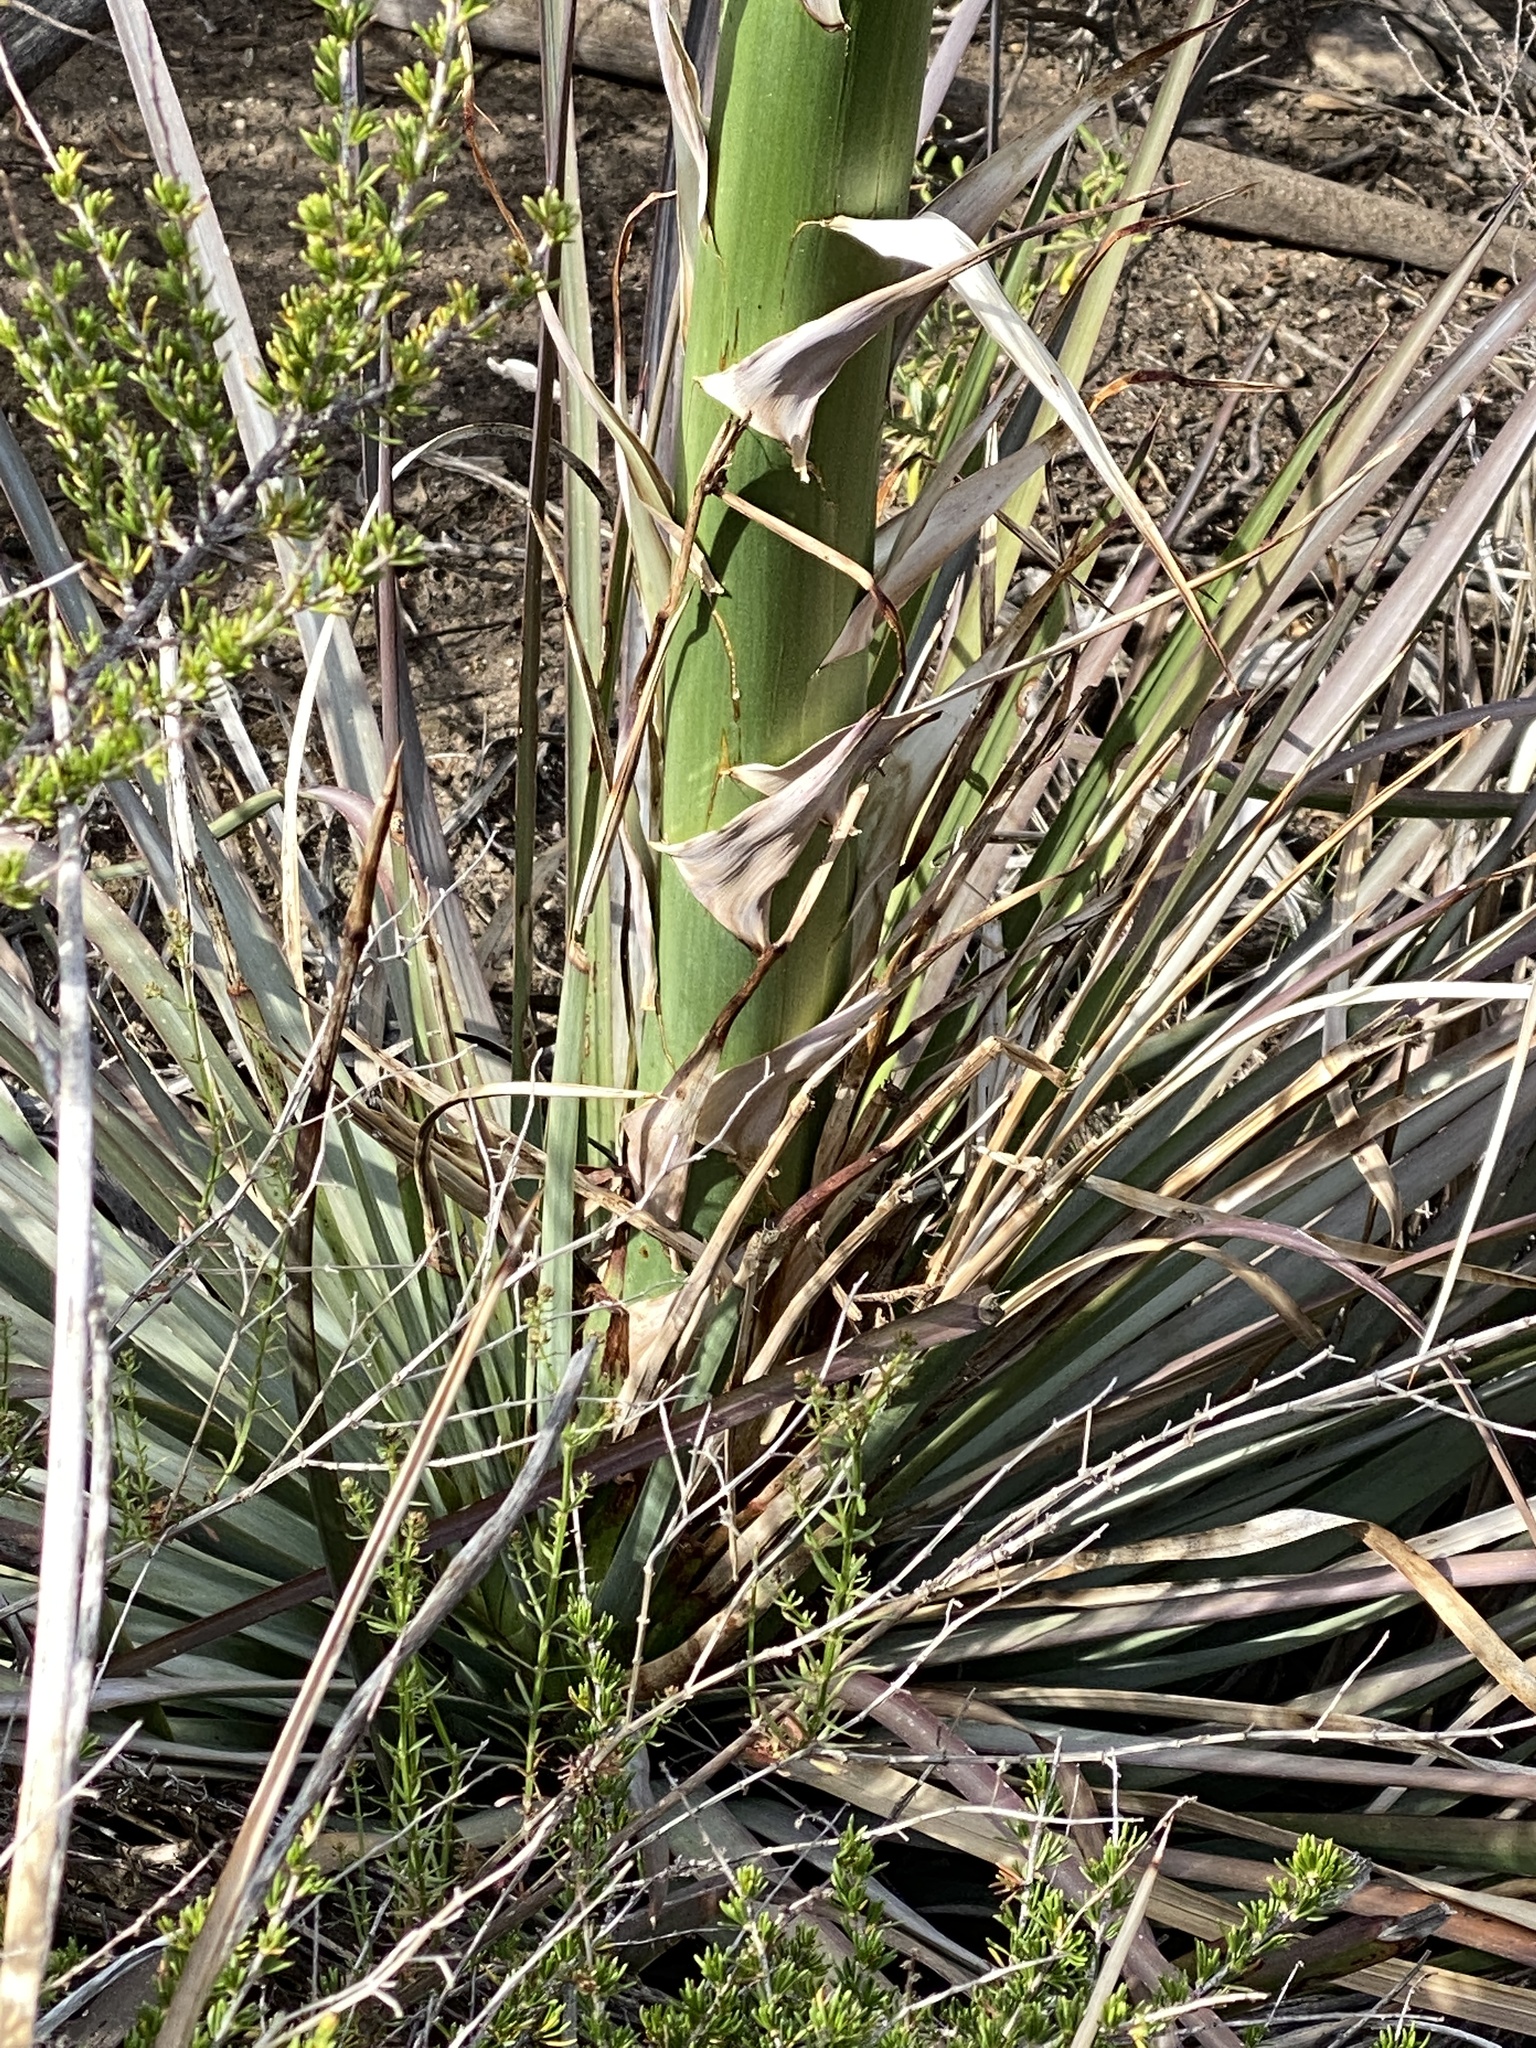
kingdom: Plantae
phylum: Tracheophyta
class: Liliopsida
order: Asparagales
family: Asparagaceae
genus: Hesperoyucca
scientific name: Hesperoyucca whipplei
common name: Our lord's-candle
